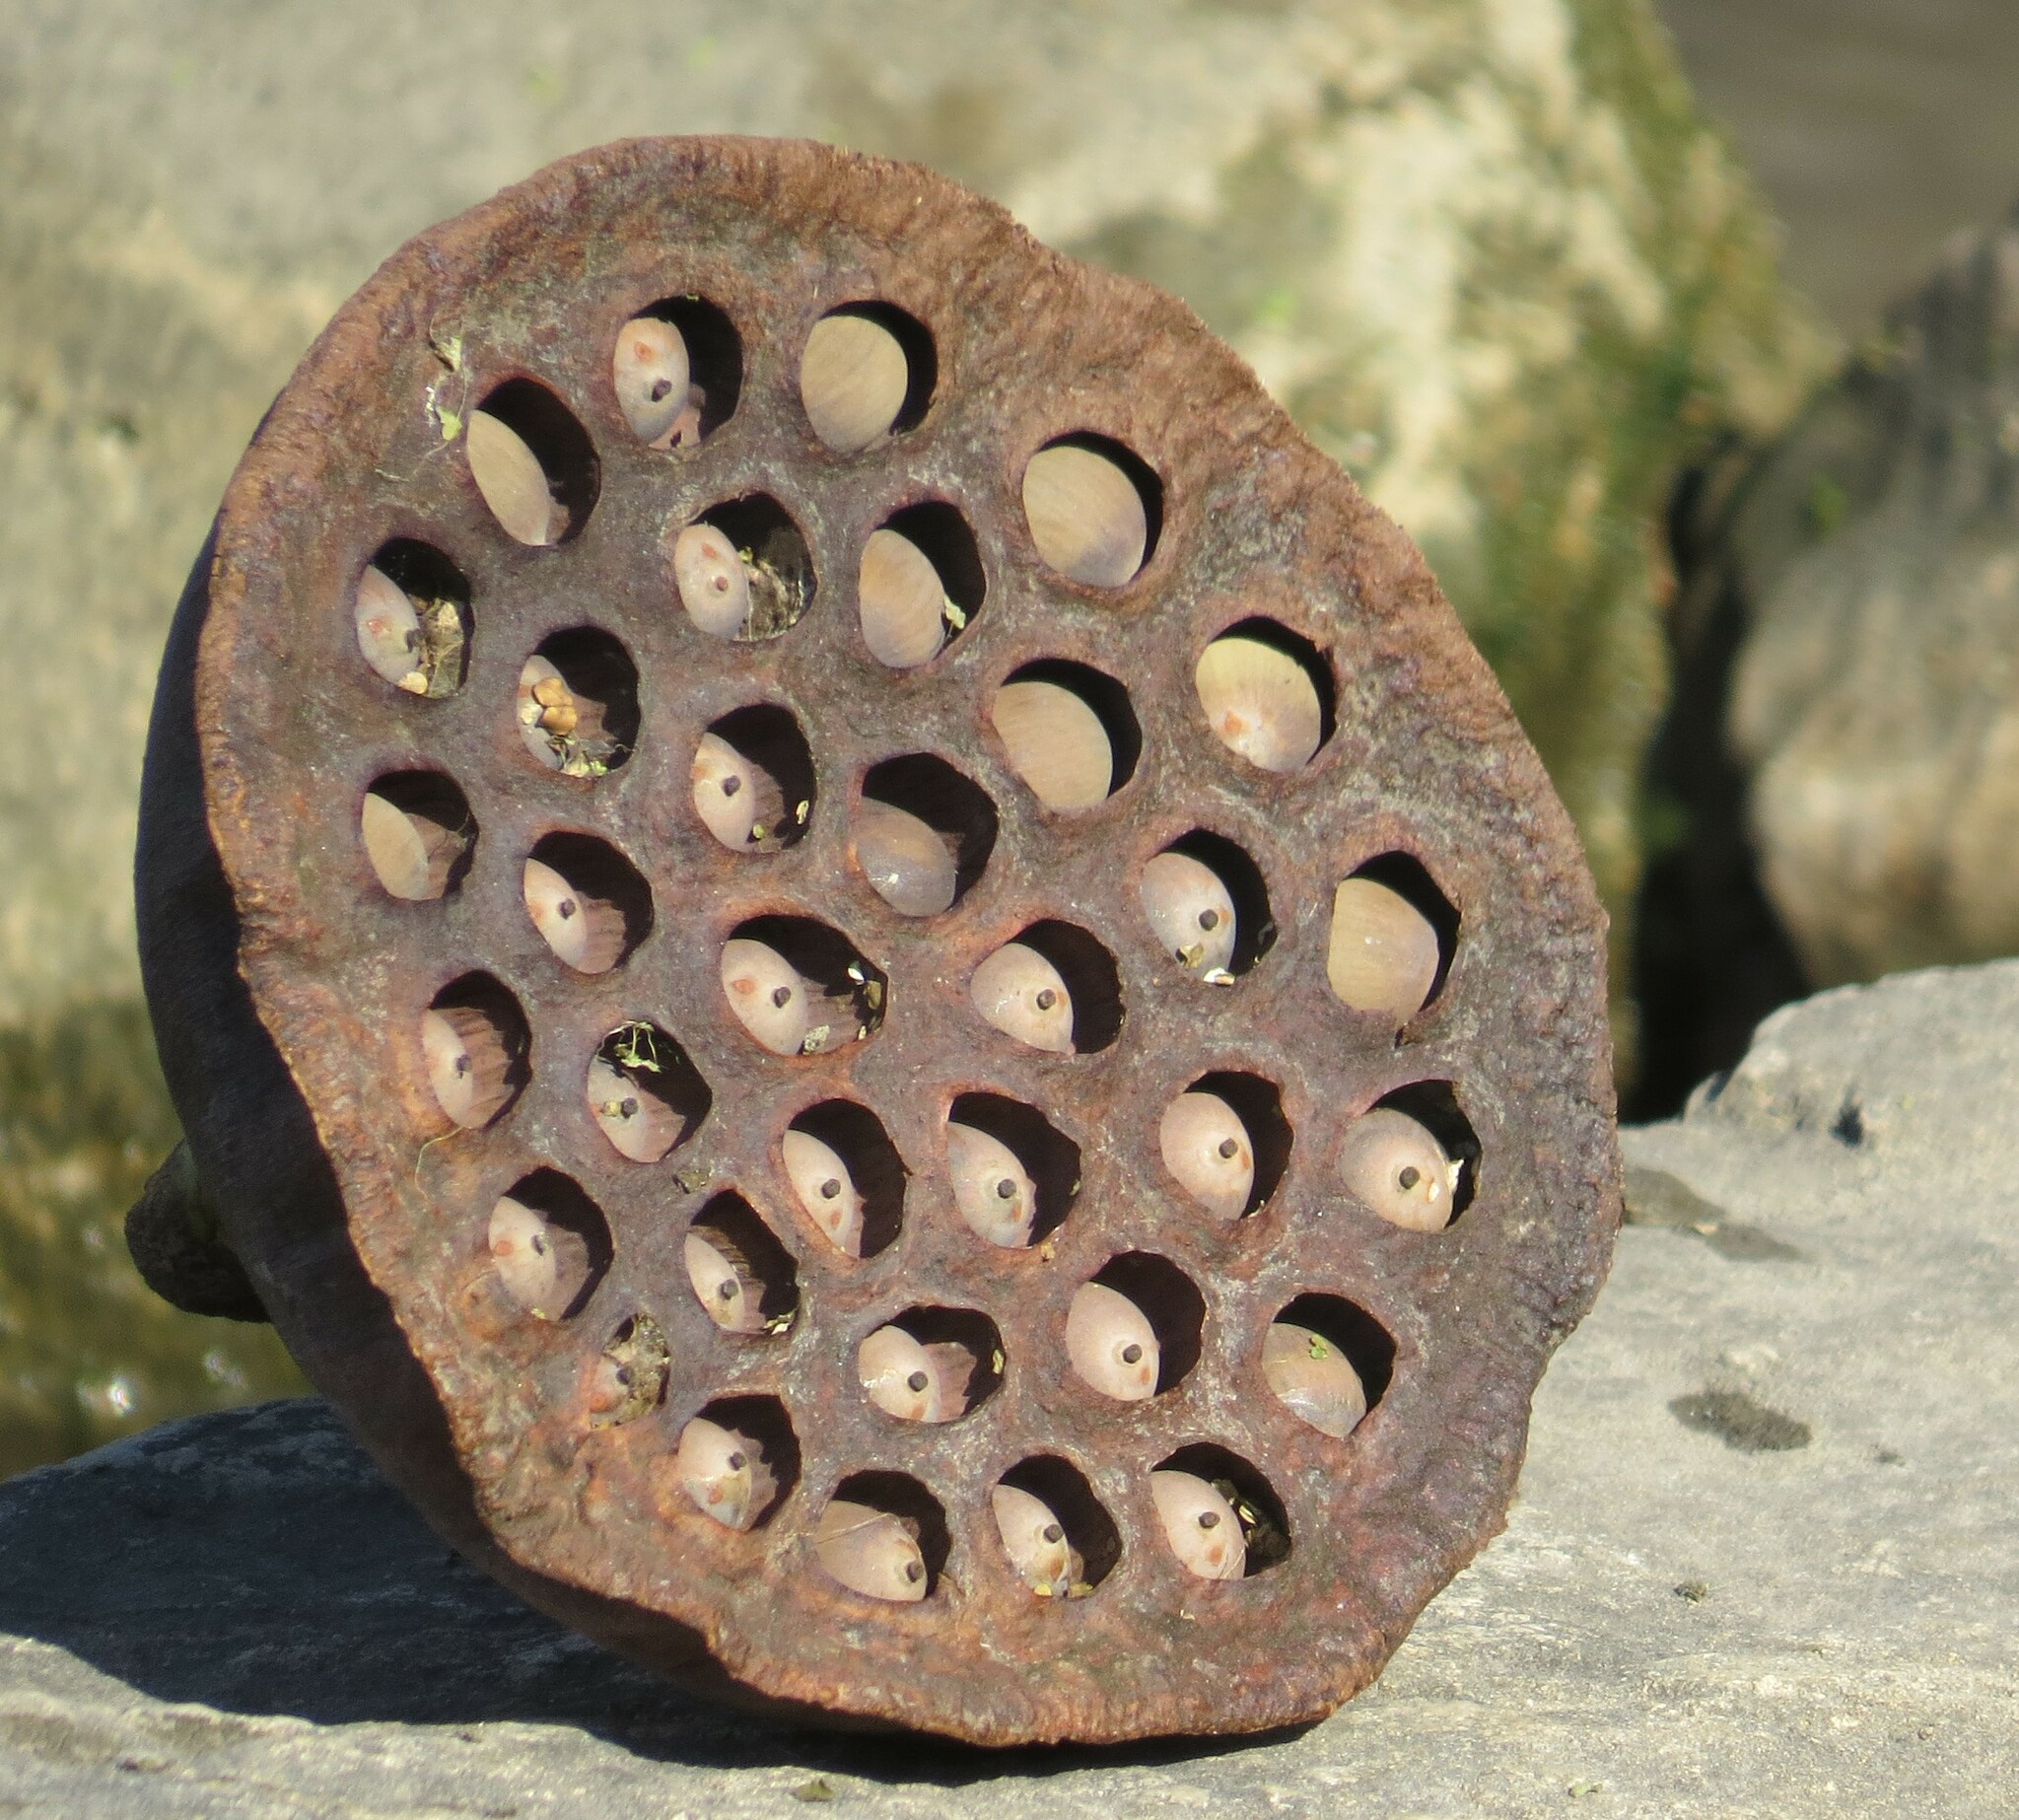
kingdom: Plantae
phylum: Tracheophyta
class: Magnoliopsida
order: Proteales
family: Nelumbonaceae
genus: Nelumbo
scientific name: Nelumbo lutea
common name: American lotus
